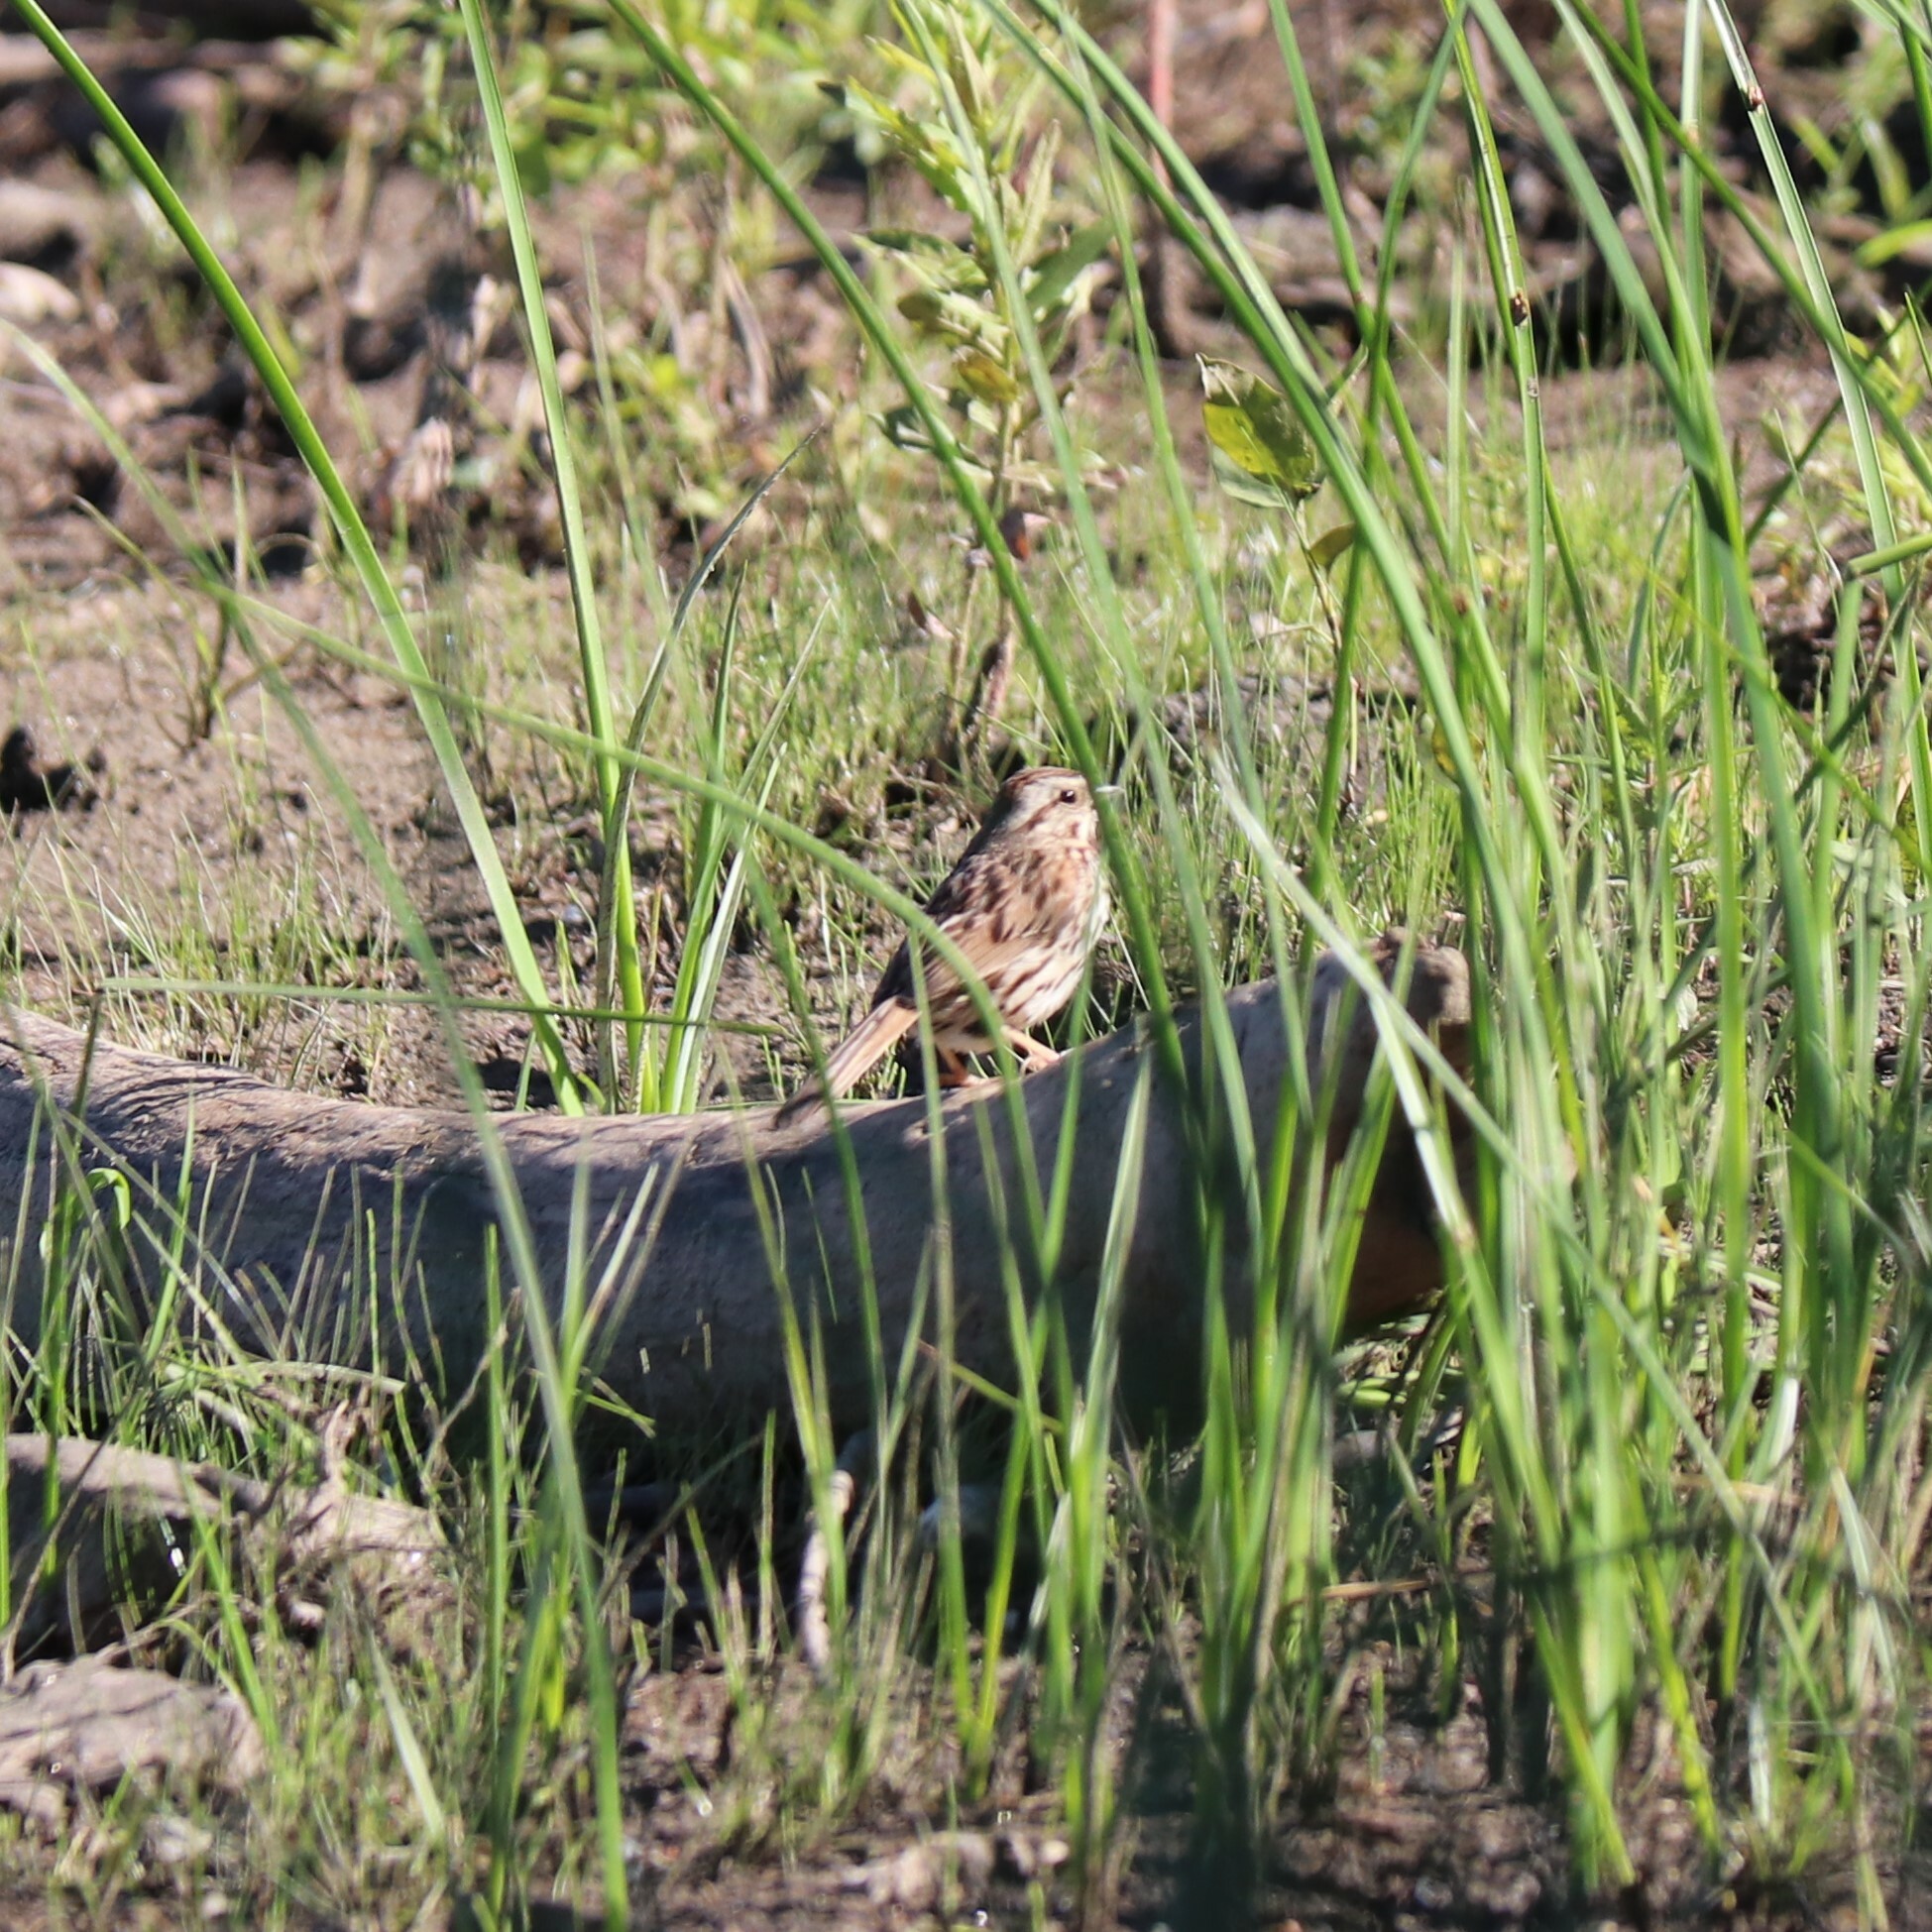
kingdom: Animalia
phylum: Chordata
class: Aves
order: Passeriformes
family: Passerellidae
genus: Melospiza
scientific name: Melospiza melodia
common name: Song sparrow
